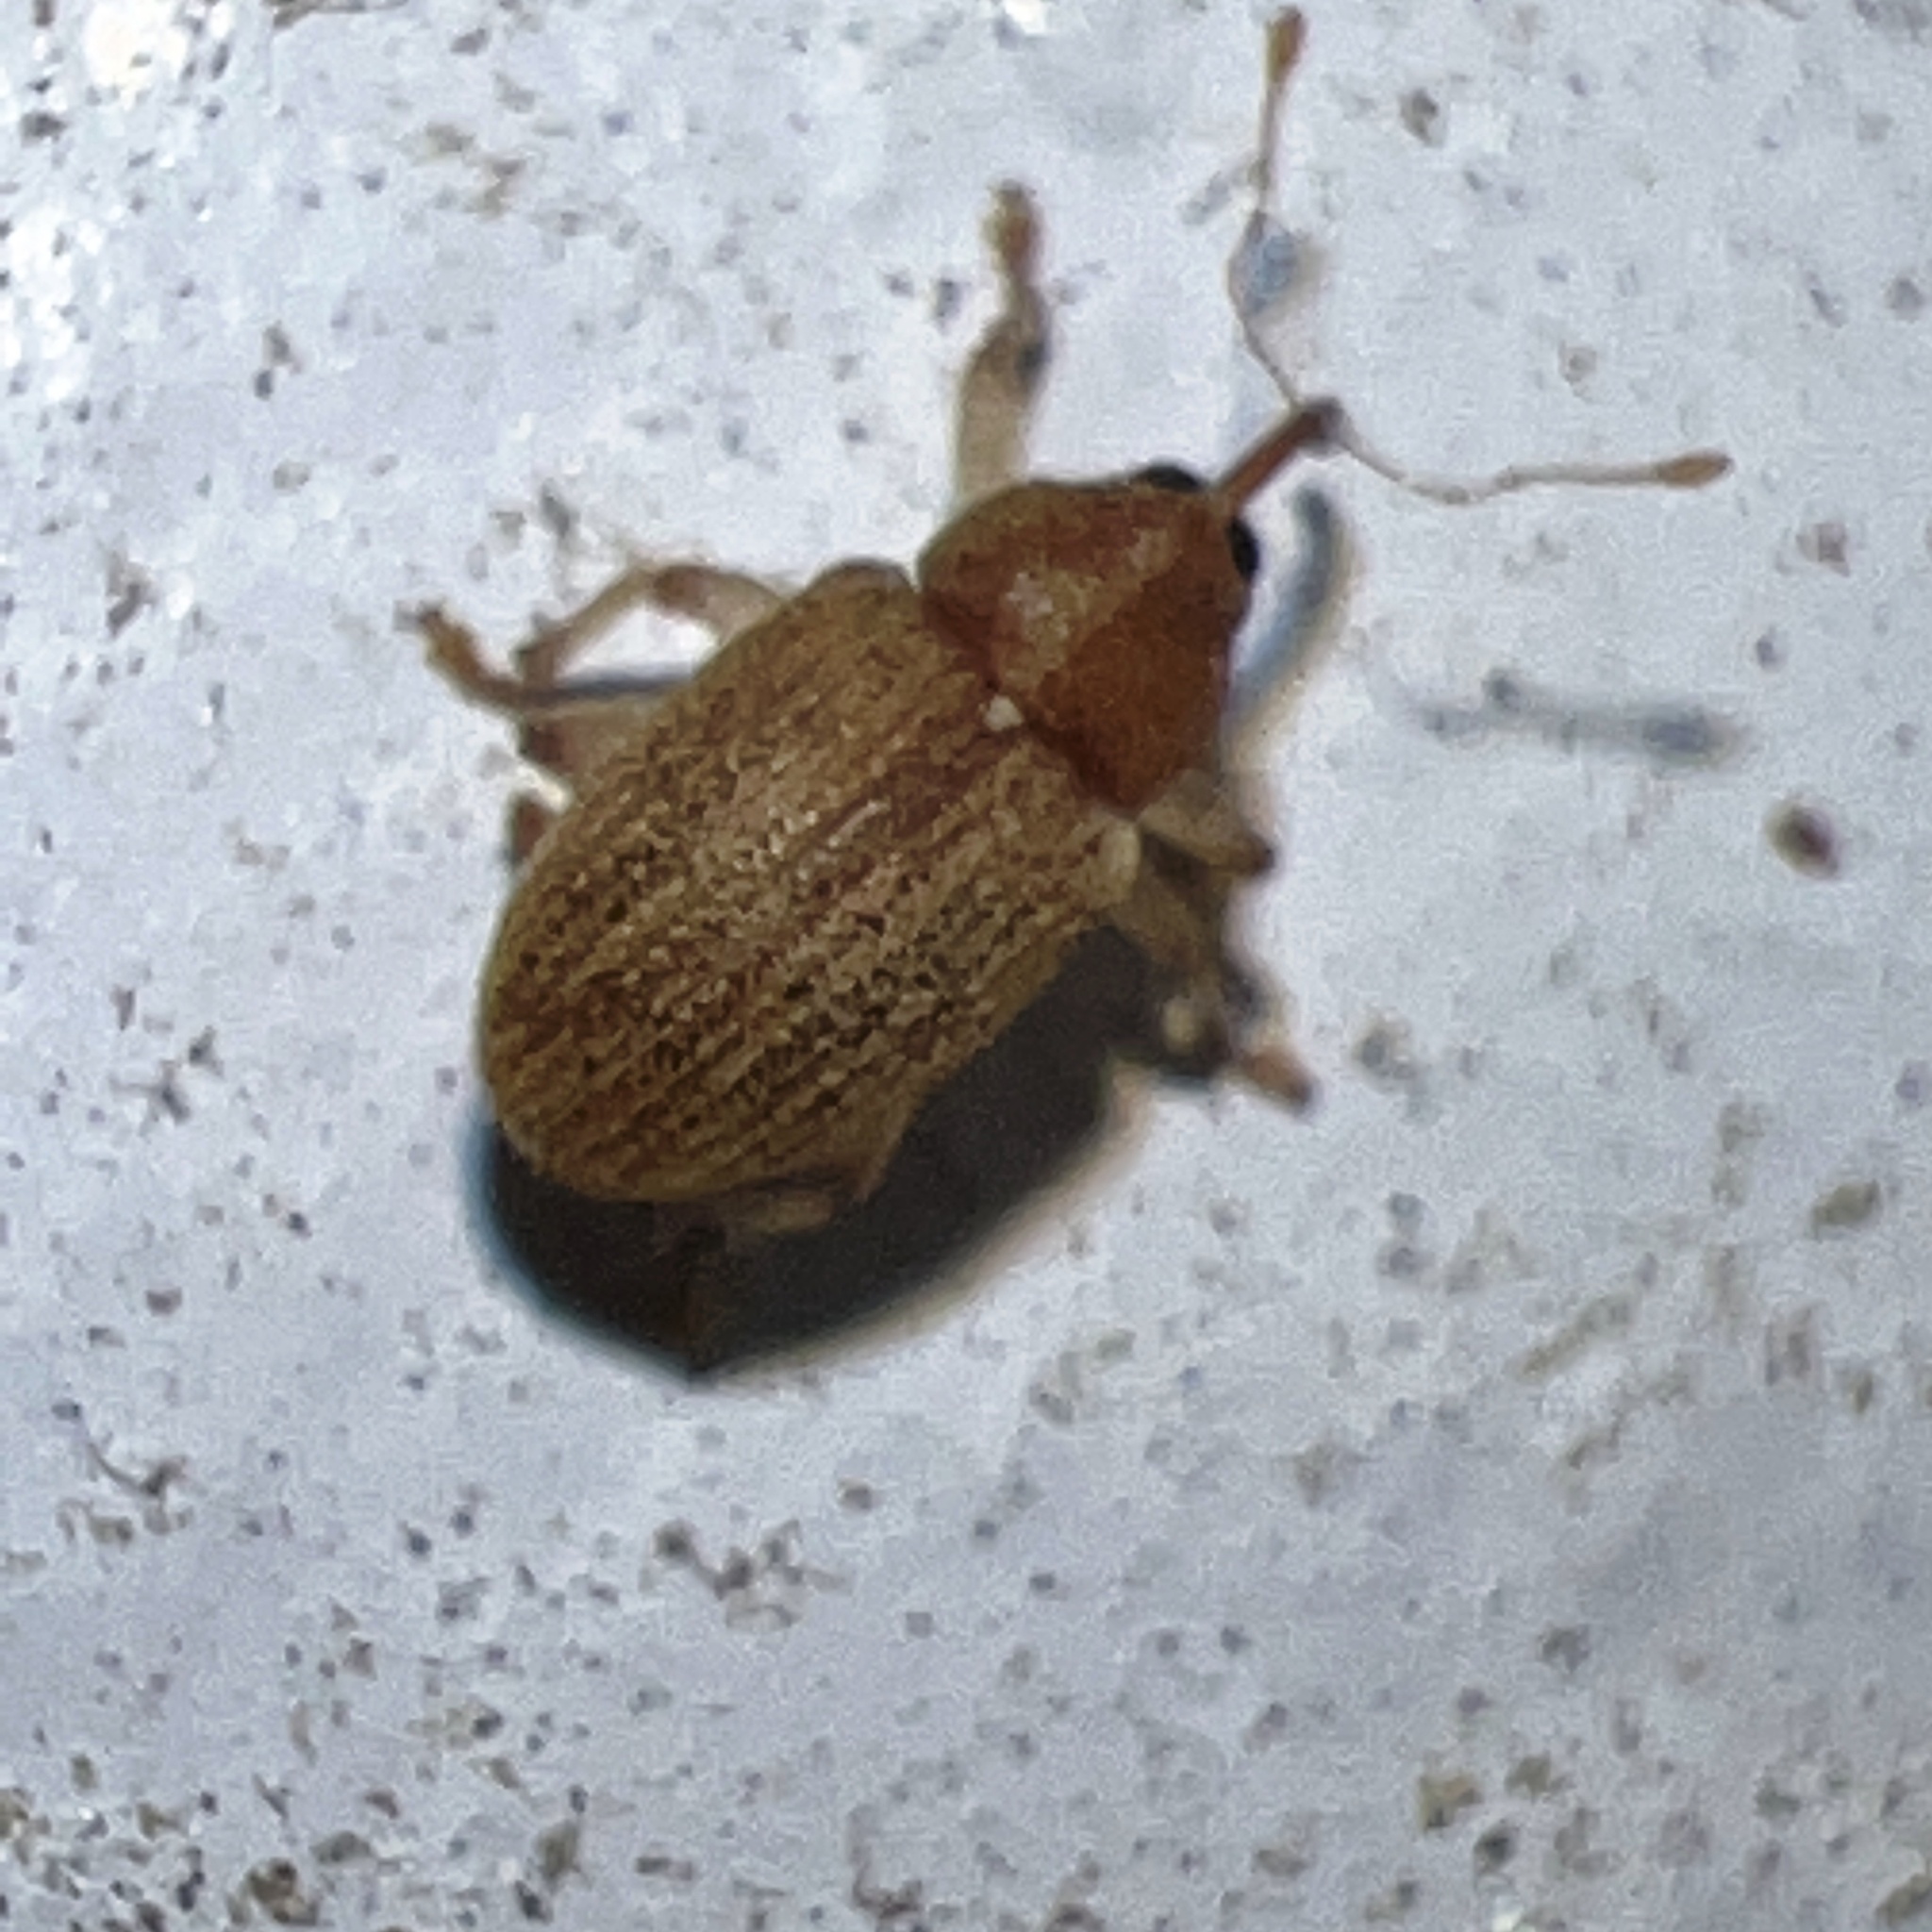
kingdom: Animalia
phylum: Arthropoda
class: Insecta
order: Coleoptera
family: Curculionidae
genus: Lignyodes
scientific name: Lignyodes helvolus
